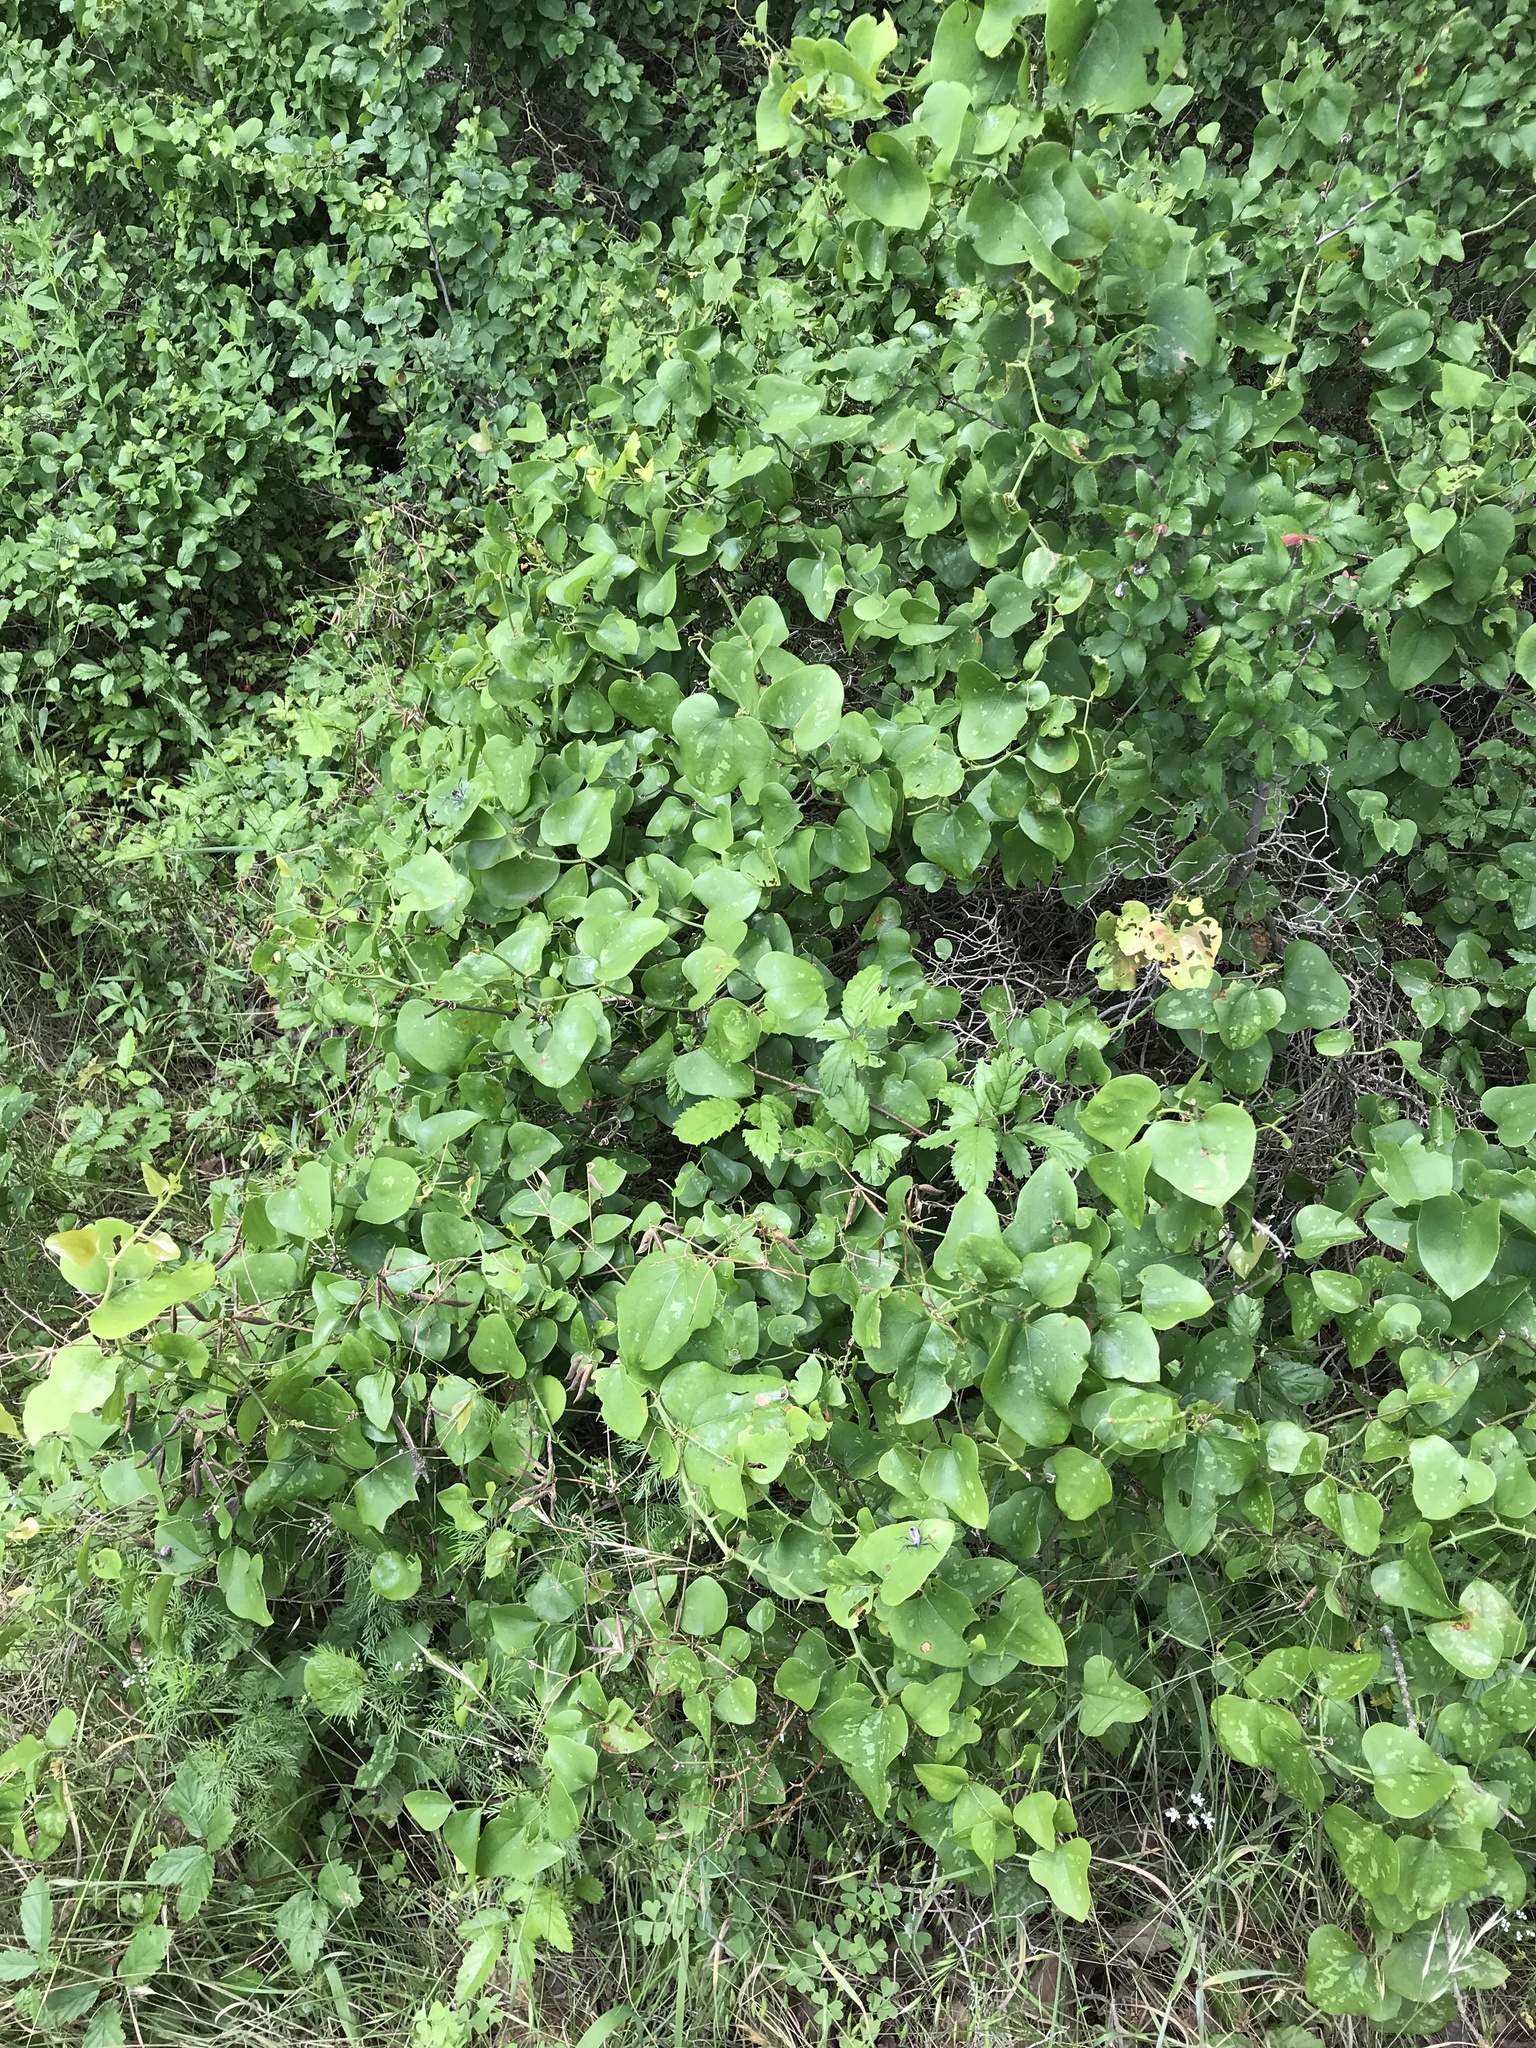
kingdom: Plantae
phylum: Tracheophyta
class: Liliopsida
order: Liliales
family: Smilacaceae
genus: Smilax
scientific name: Smilax bona-nox
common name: Catbrier
